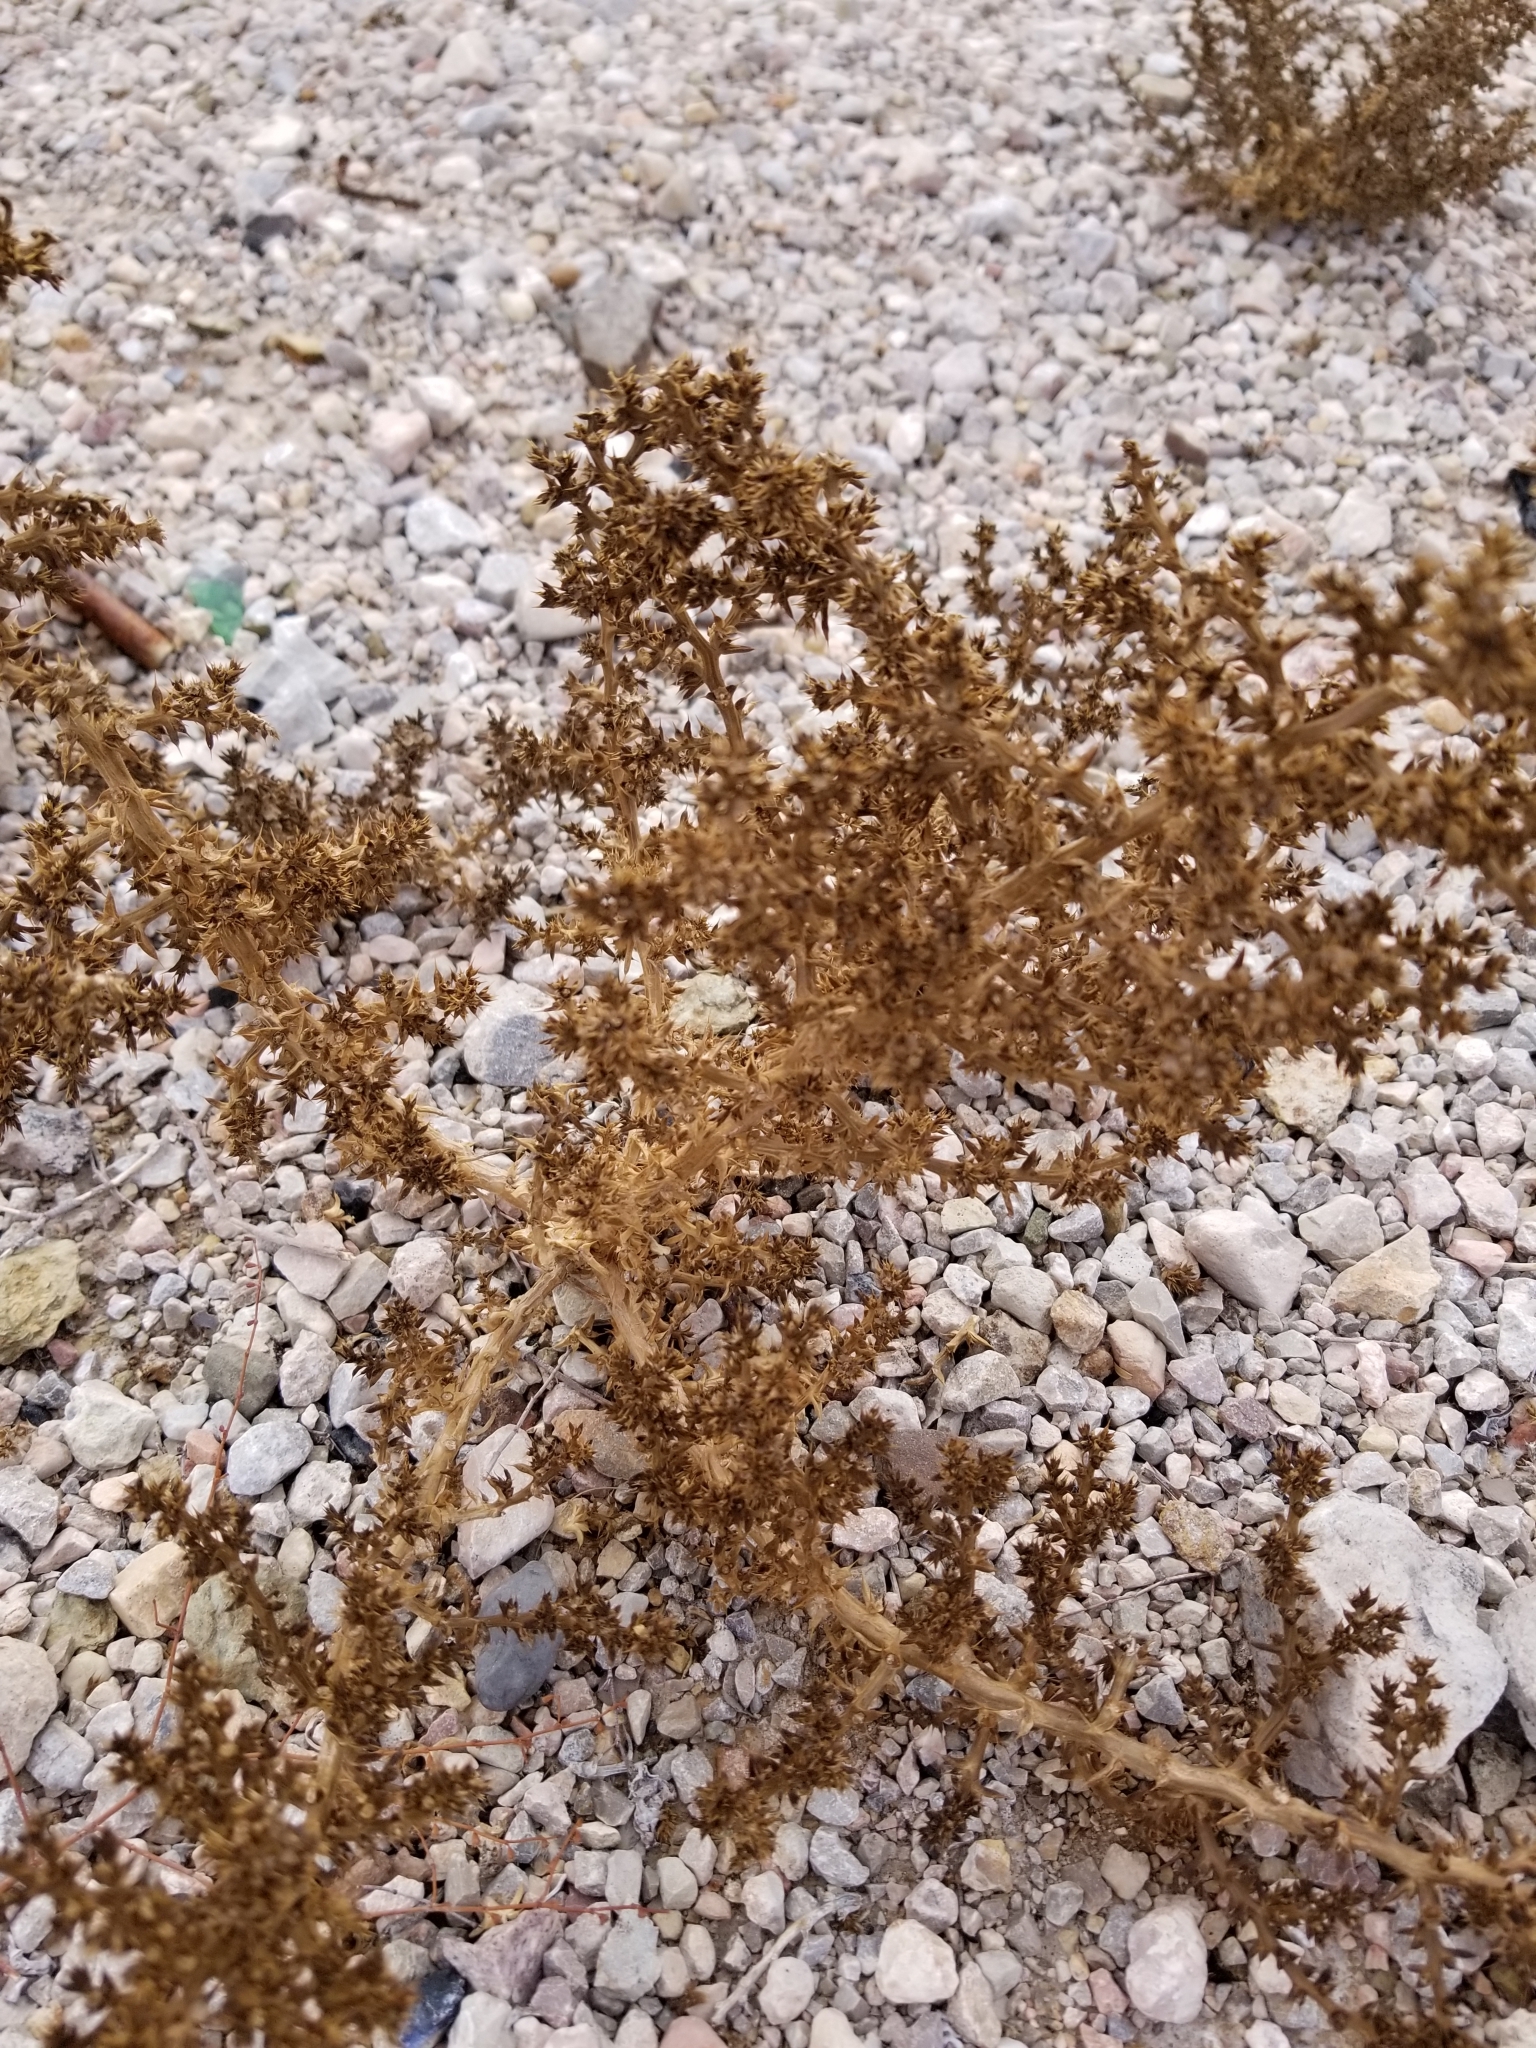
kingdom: Plantae
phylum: Tracheophyta
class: Magnoliopsida
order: Caryophyllales
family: Amaranthaceae
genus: Salsola
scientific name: Salsola tragus
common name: Prickly russian thistle
